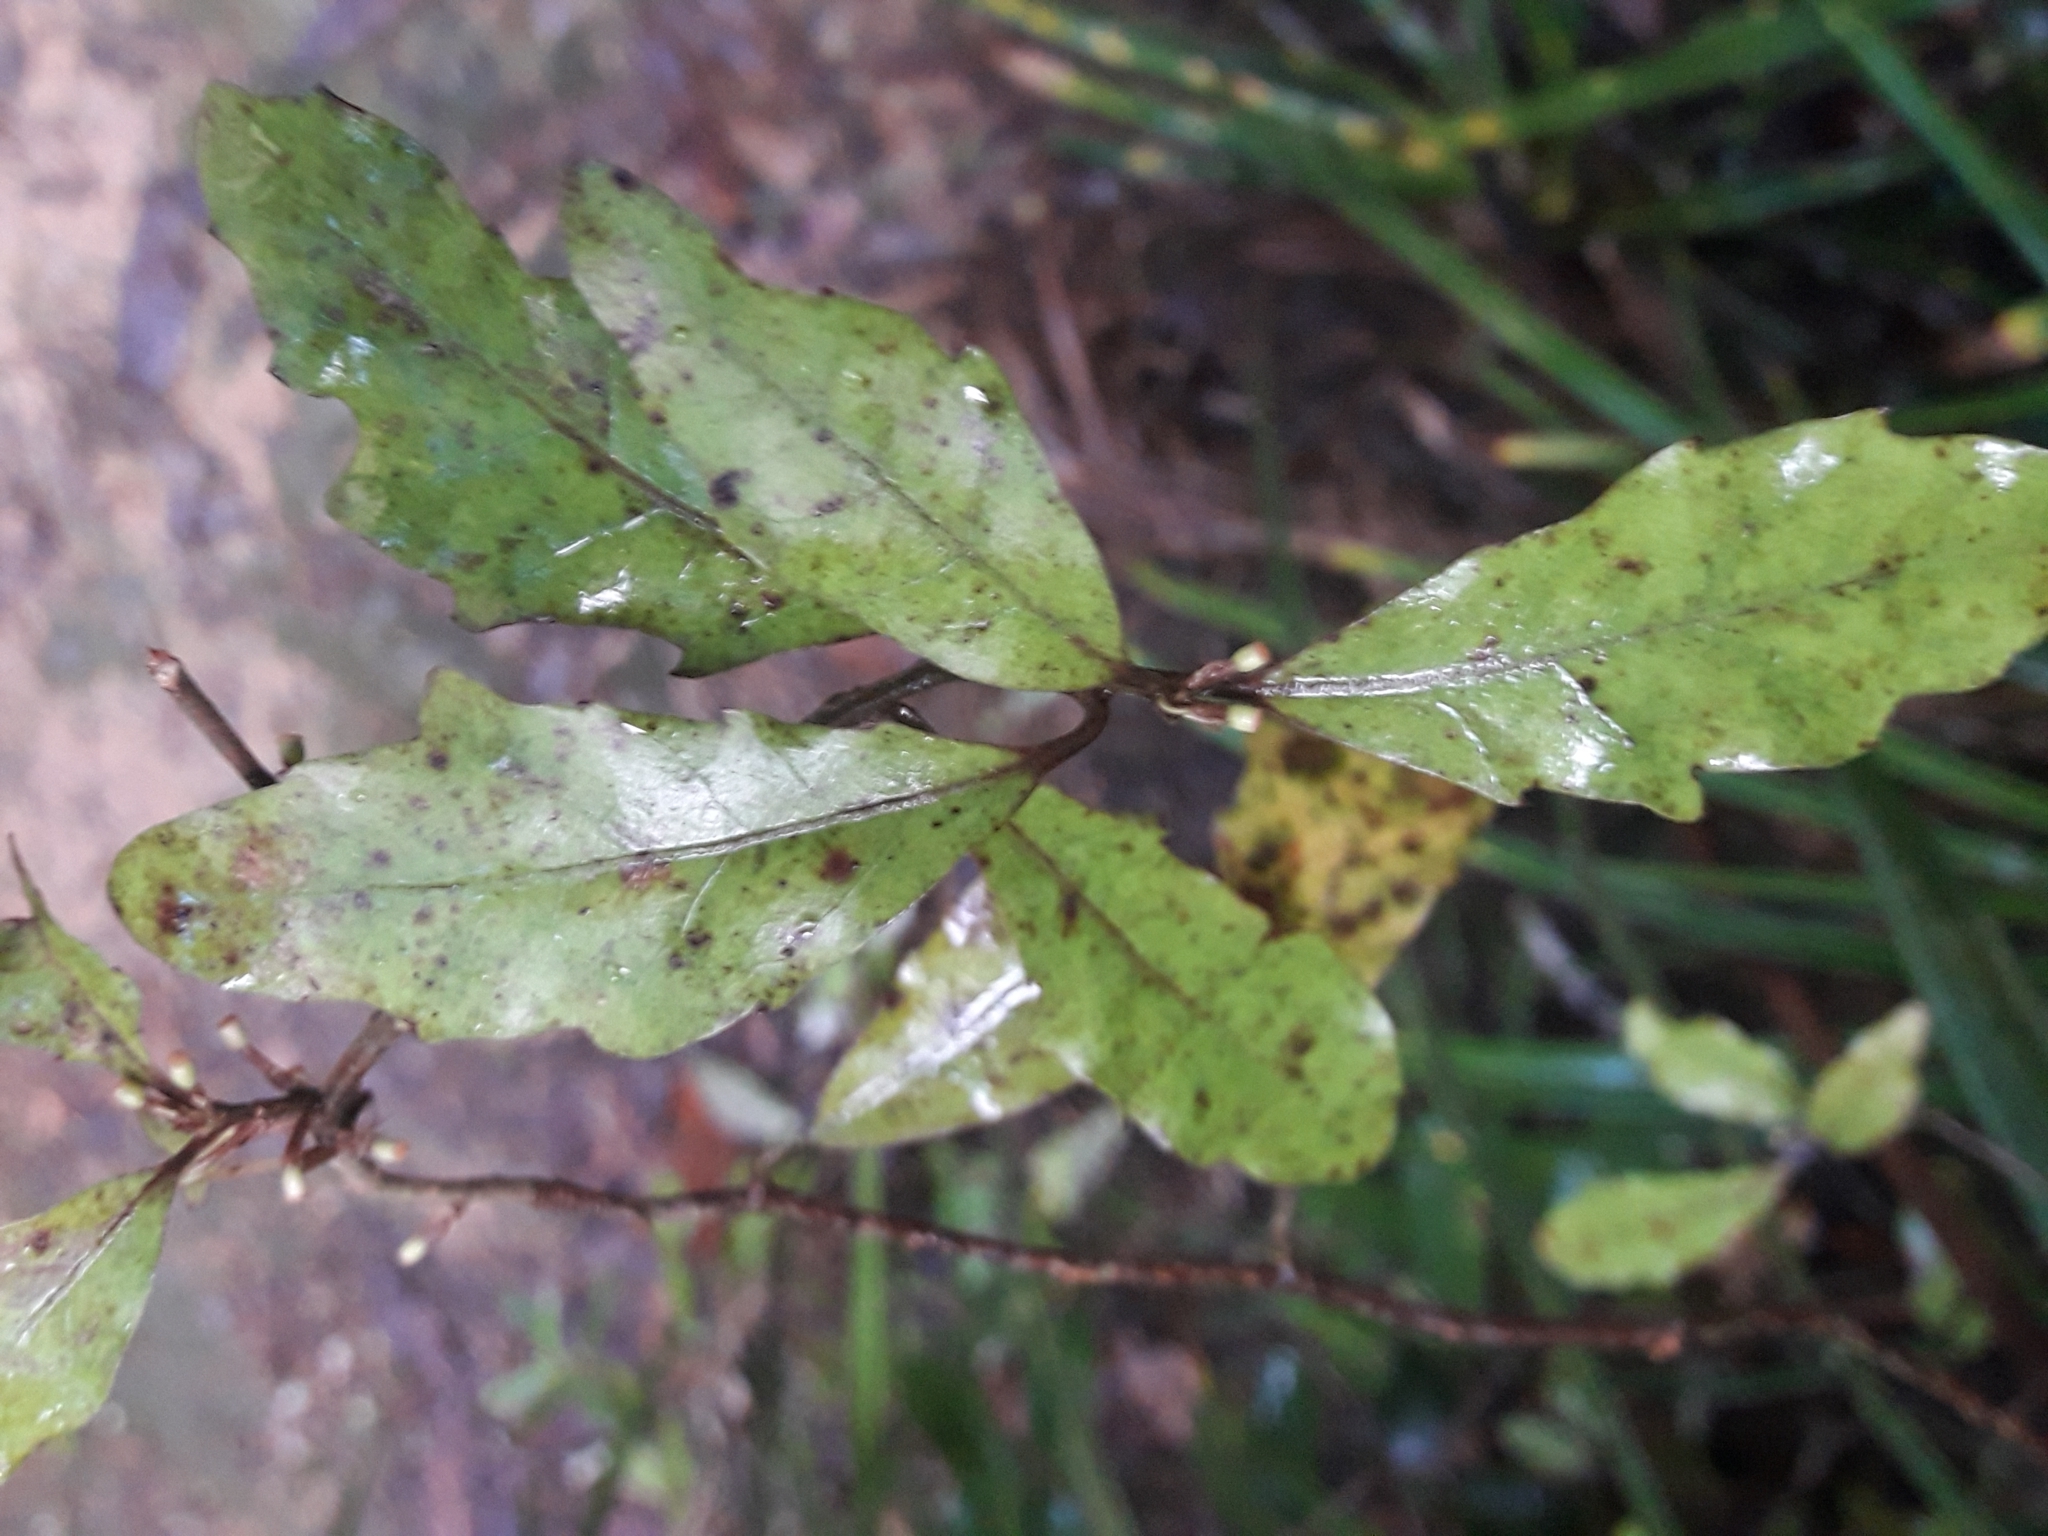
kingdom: Plantae
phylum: Tracheophyta
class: Magnoliopsida
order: Asterales
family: Alseuosmiaceae
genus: Alseuosmia
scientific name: Alseuosmia banksii
